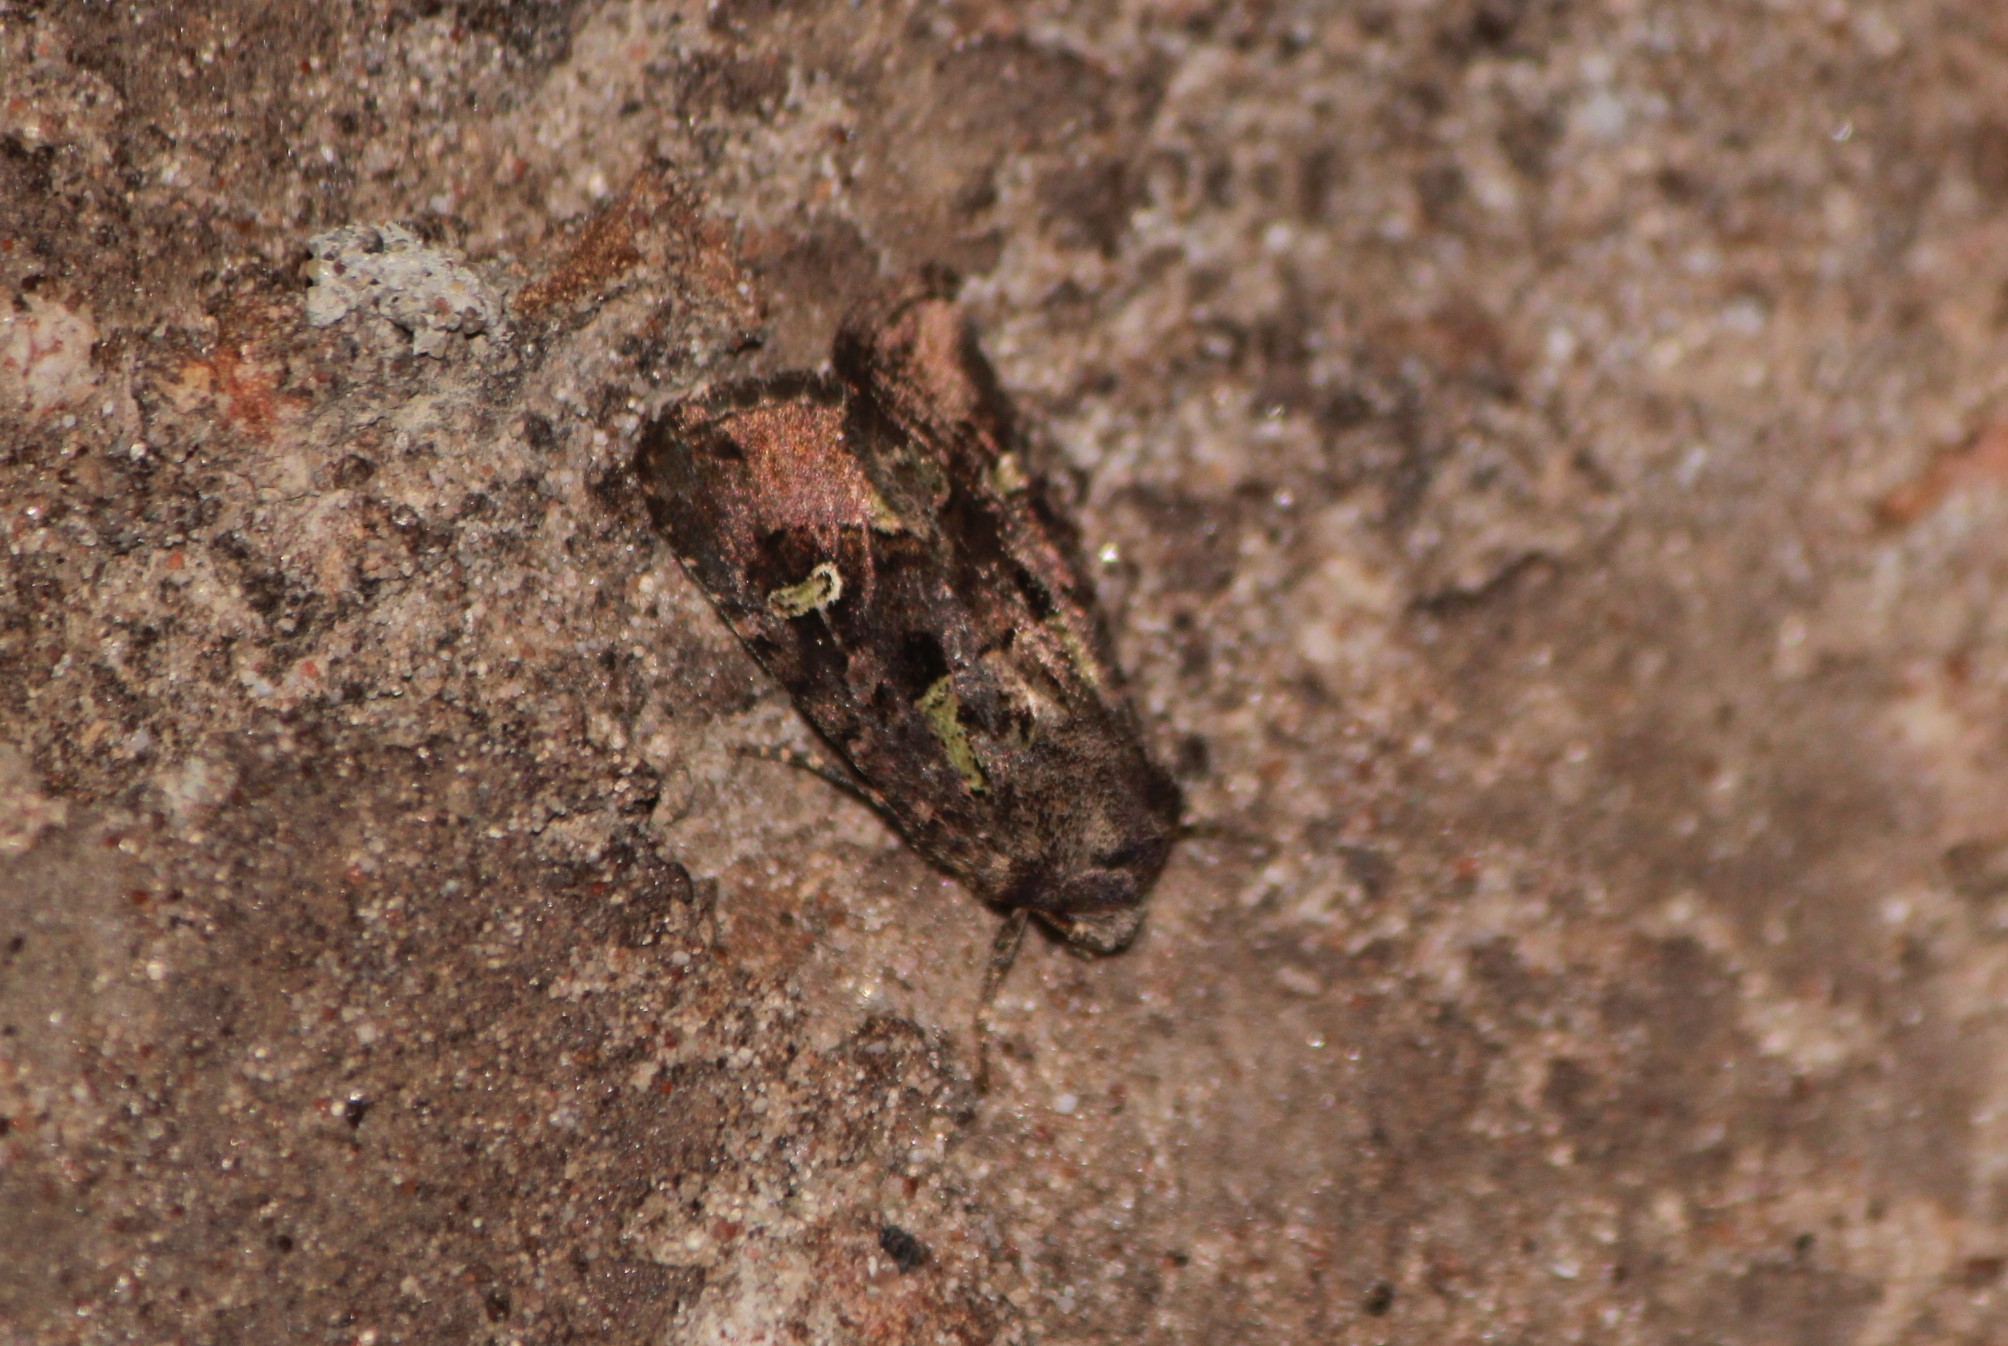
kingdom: Animalia
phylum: Arthropoda
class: Insecta
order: Lepidoptera
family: Noctuidae
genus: Lacinipolia
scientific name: Lacinipolia renigera
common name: Kidney-spotted minor
